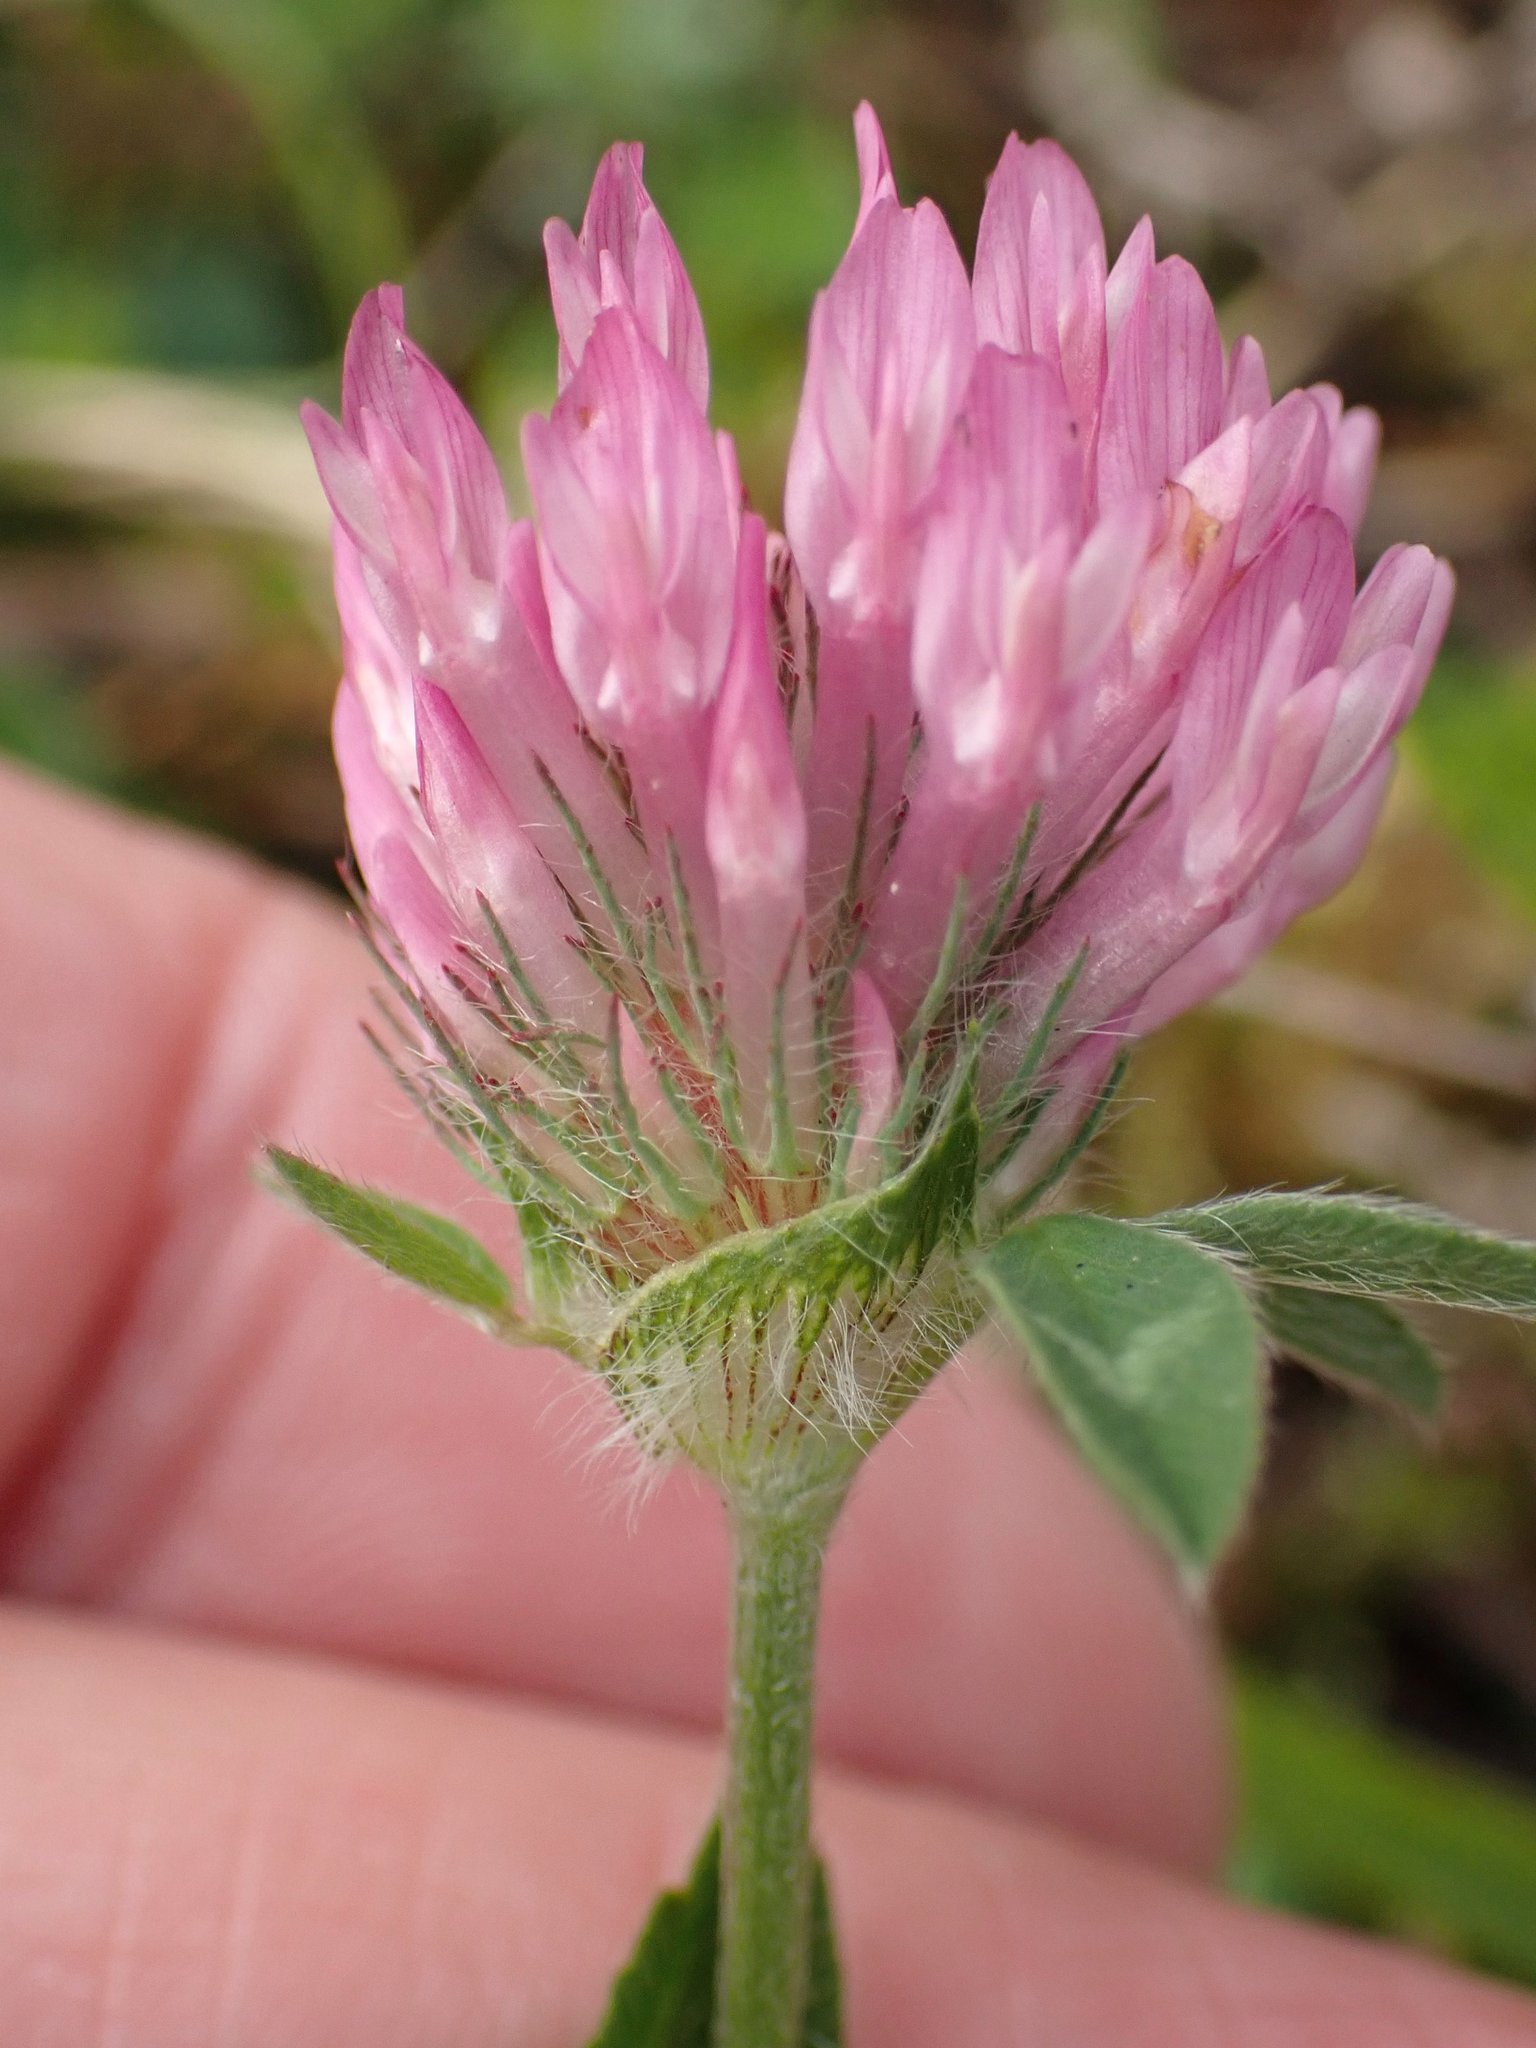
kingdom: Plantae
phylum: Tracheophyta
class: Magnoliopsida
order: Fabales
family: Fabaceae
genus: Trifolium
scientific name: Trifolium pratense
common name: Red clover
